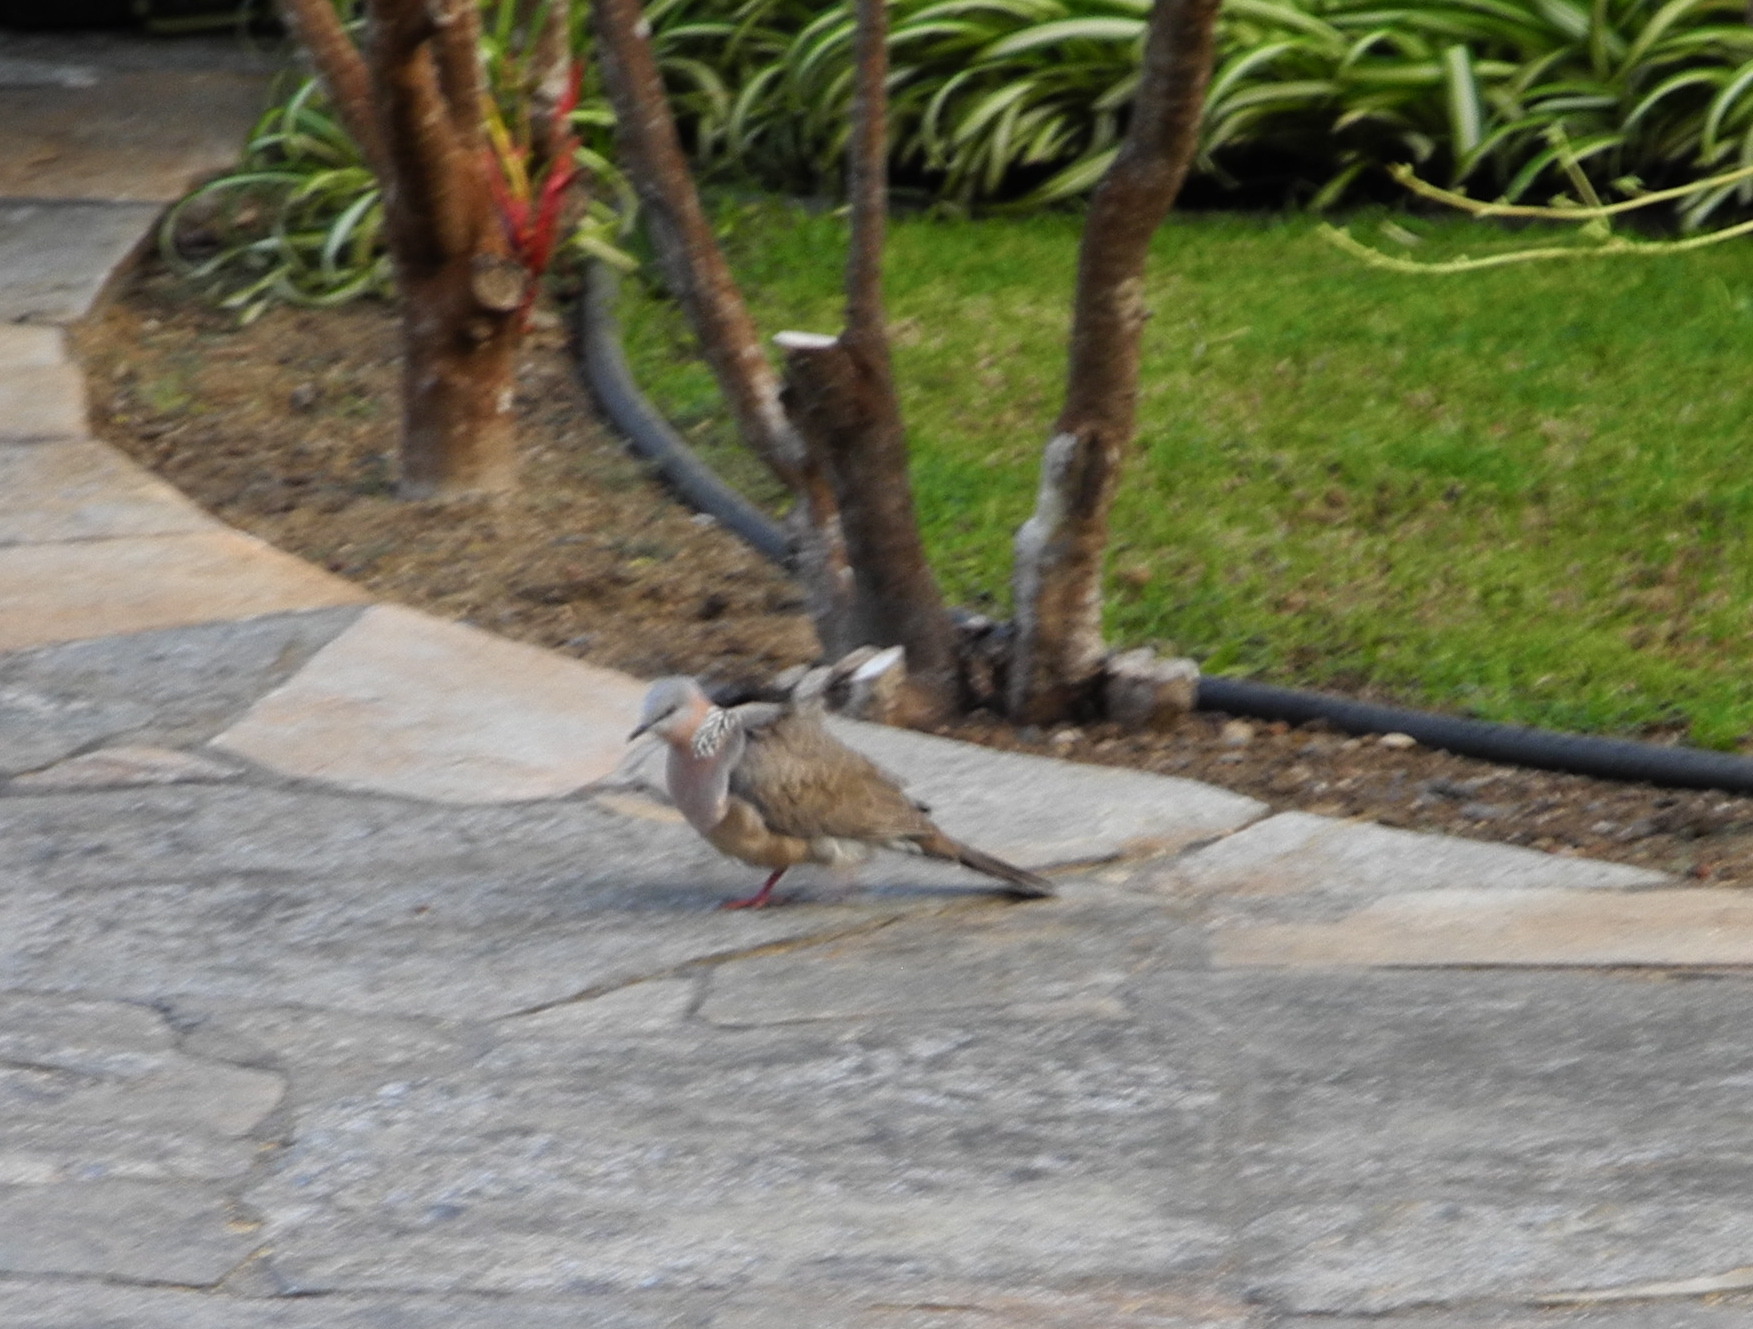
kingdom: Animalia
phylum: Chordata
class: Aves
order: Columbiformes
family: Columbidae
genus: Spilopelia
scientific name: Spilopelia chinensis
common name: Spotted dove
